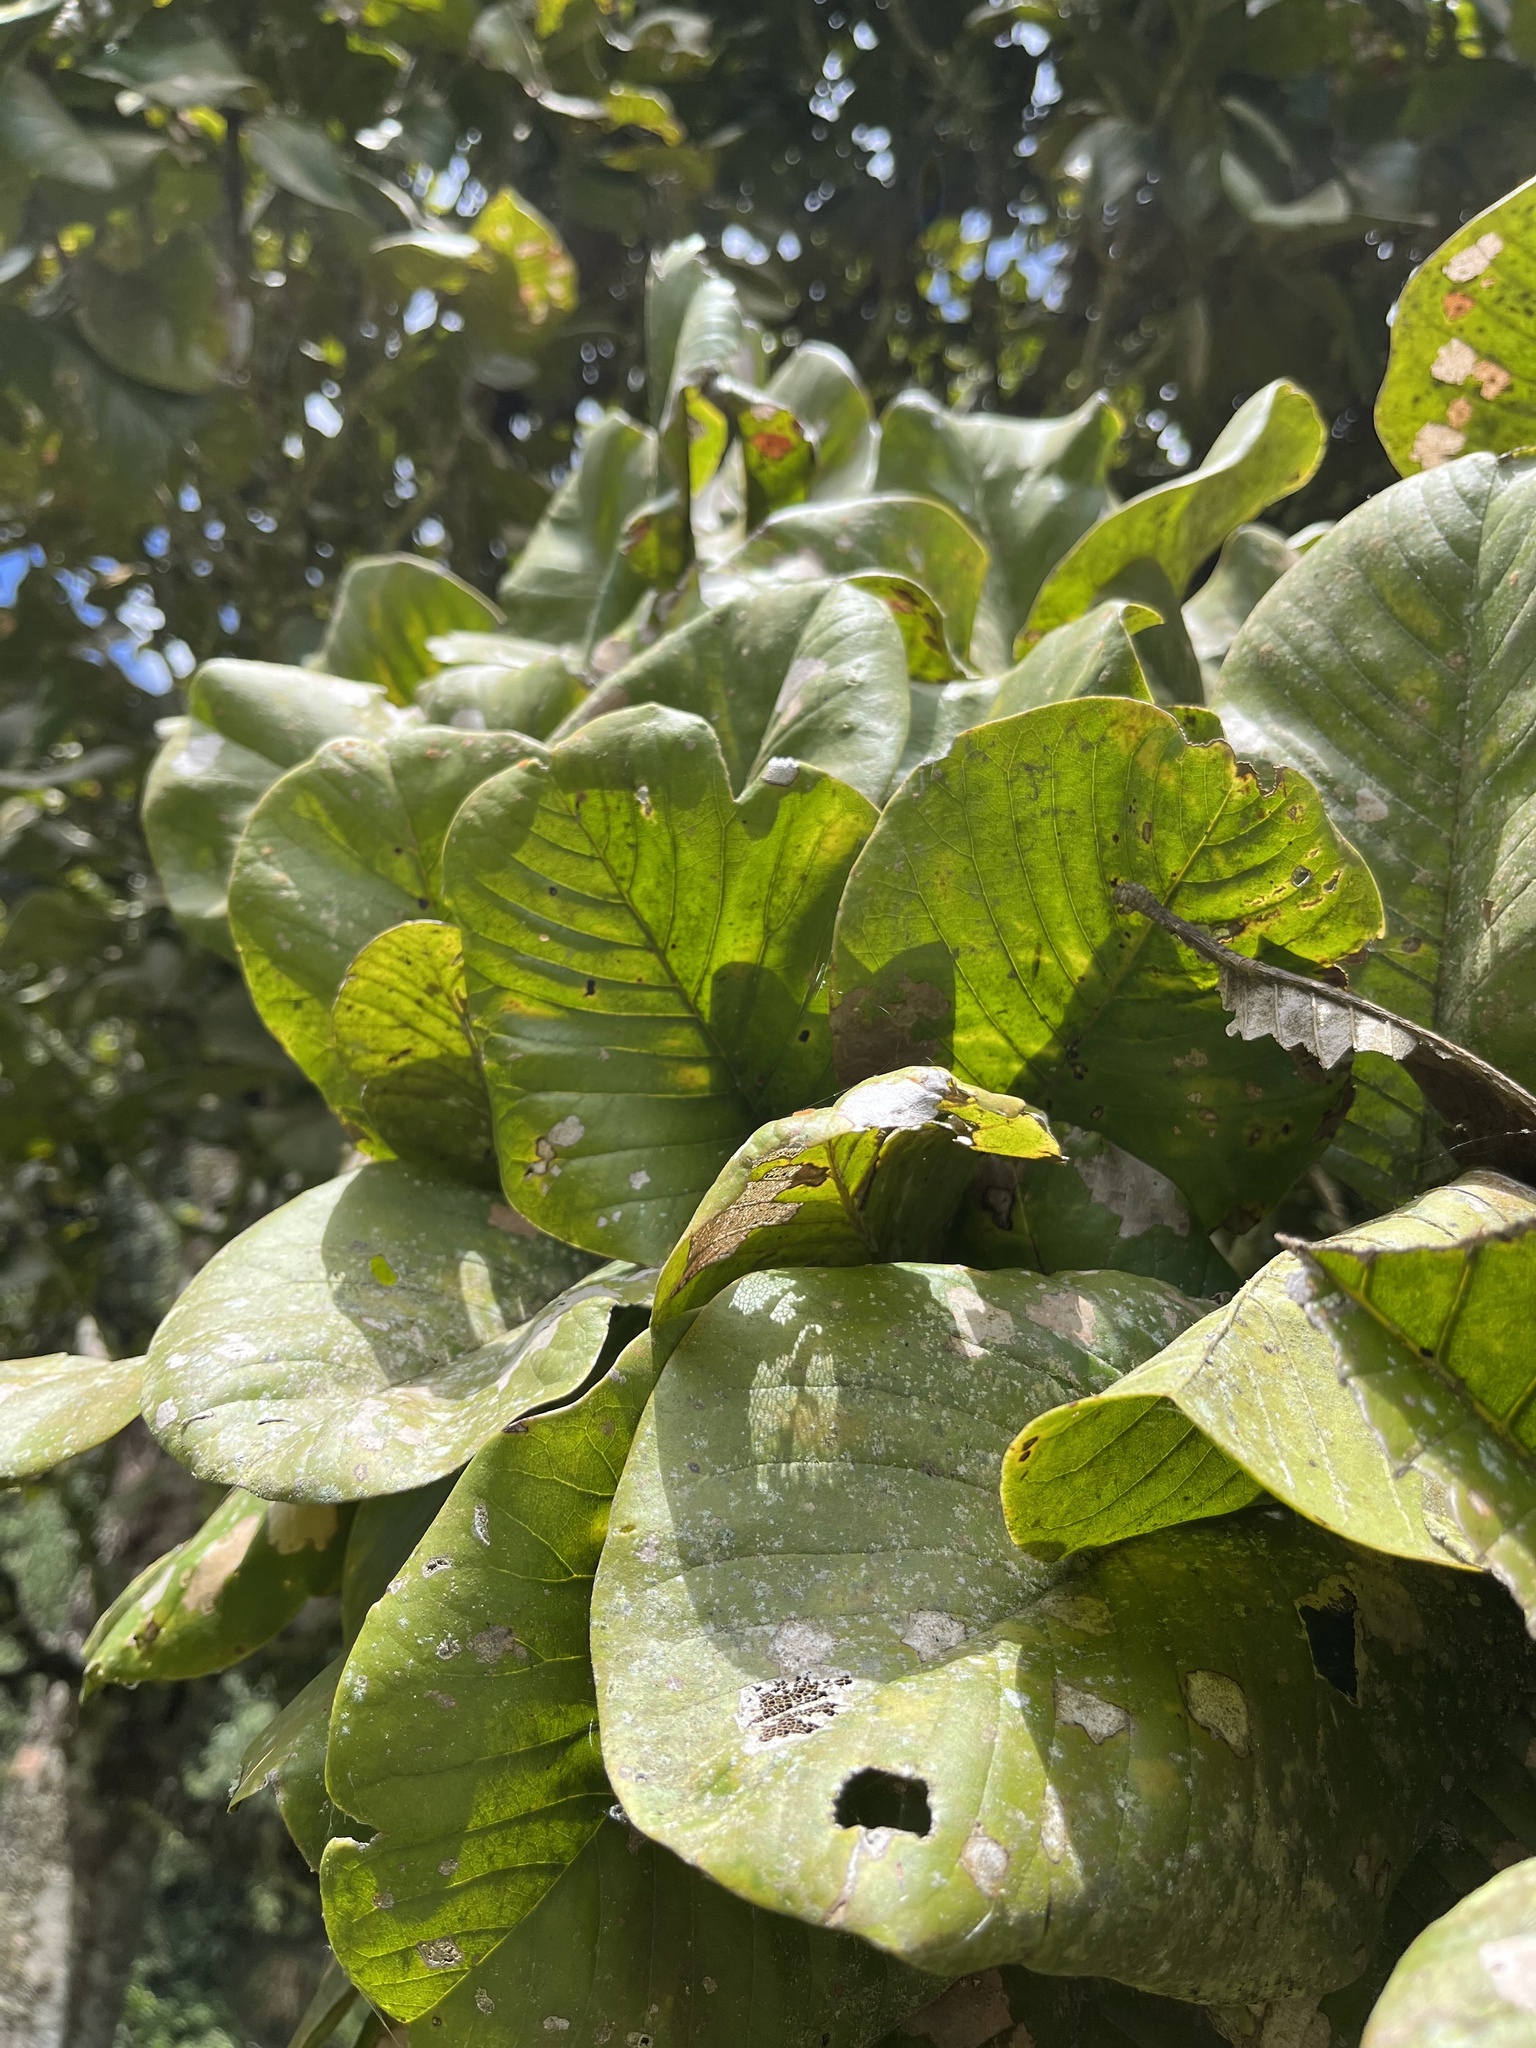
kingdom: Plantae
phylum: Tracheophyta
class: Magnoliopsida
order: Magnoliales
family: Magnoliaceae
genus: Magnolia
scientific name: Magnolia caricifragrans
